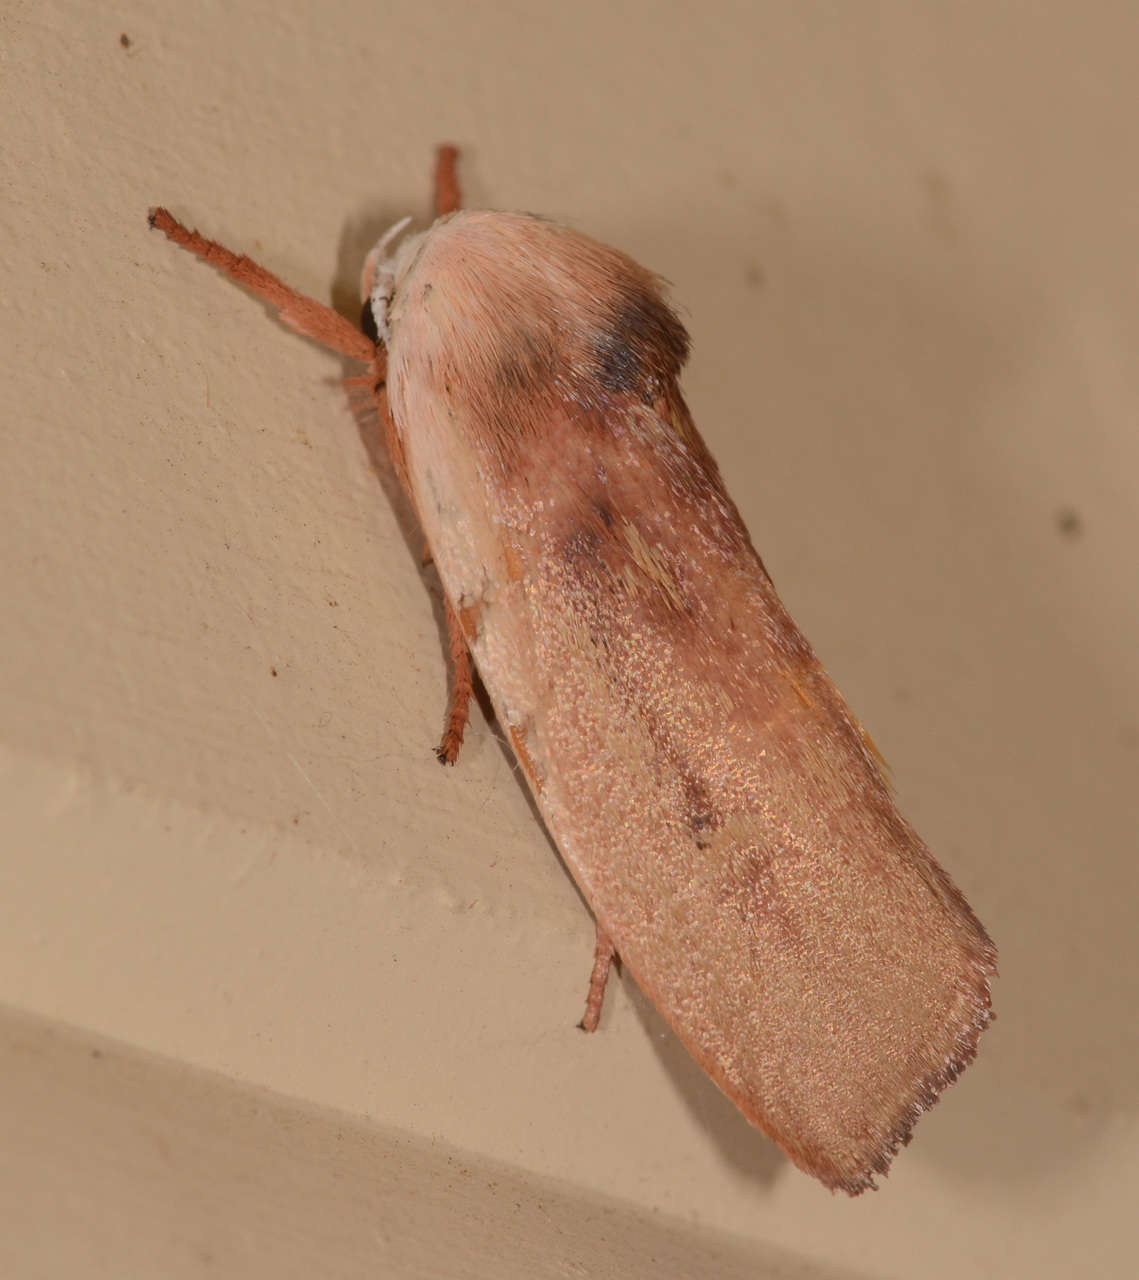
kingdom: Animalia
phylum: Arthropoda
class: Insecta
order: Lepidoptera
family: Xyloryctidae
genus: Cryptophasa
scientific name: Cryptophasa rubescens
